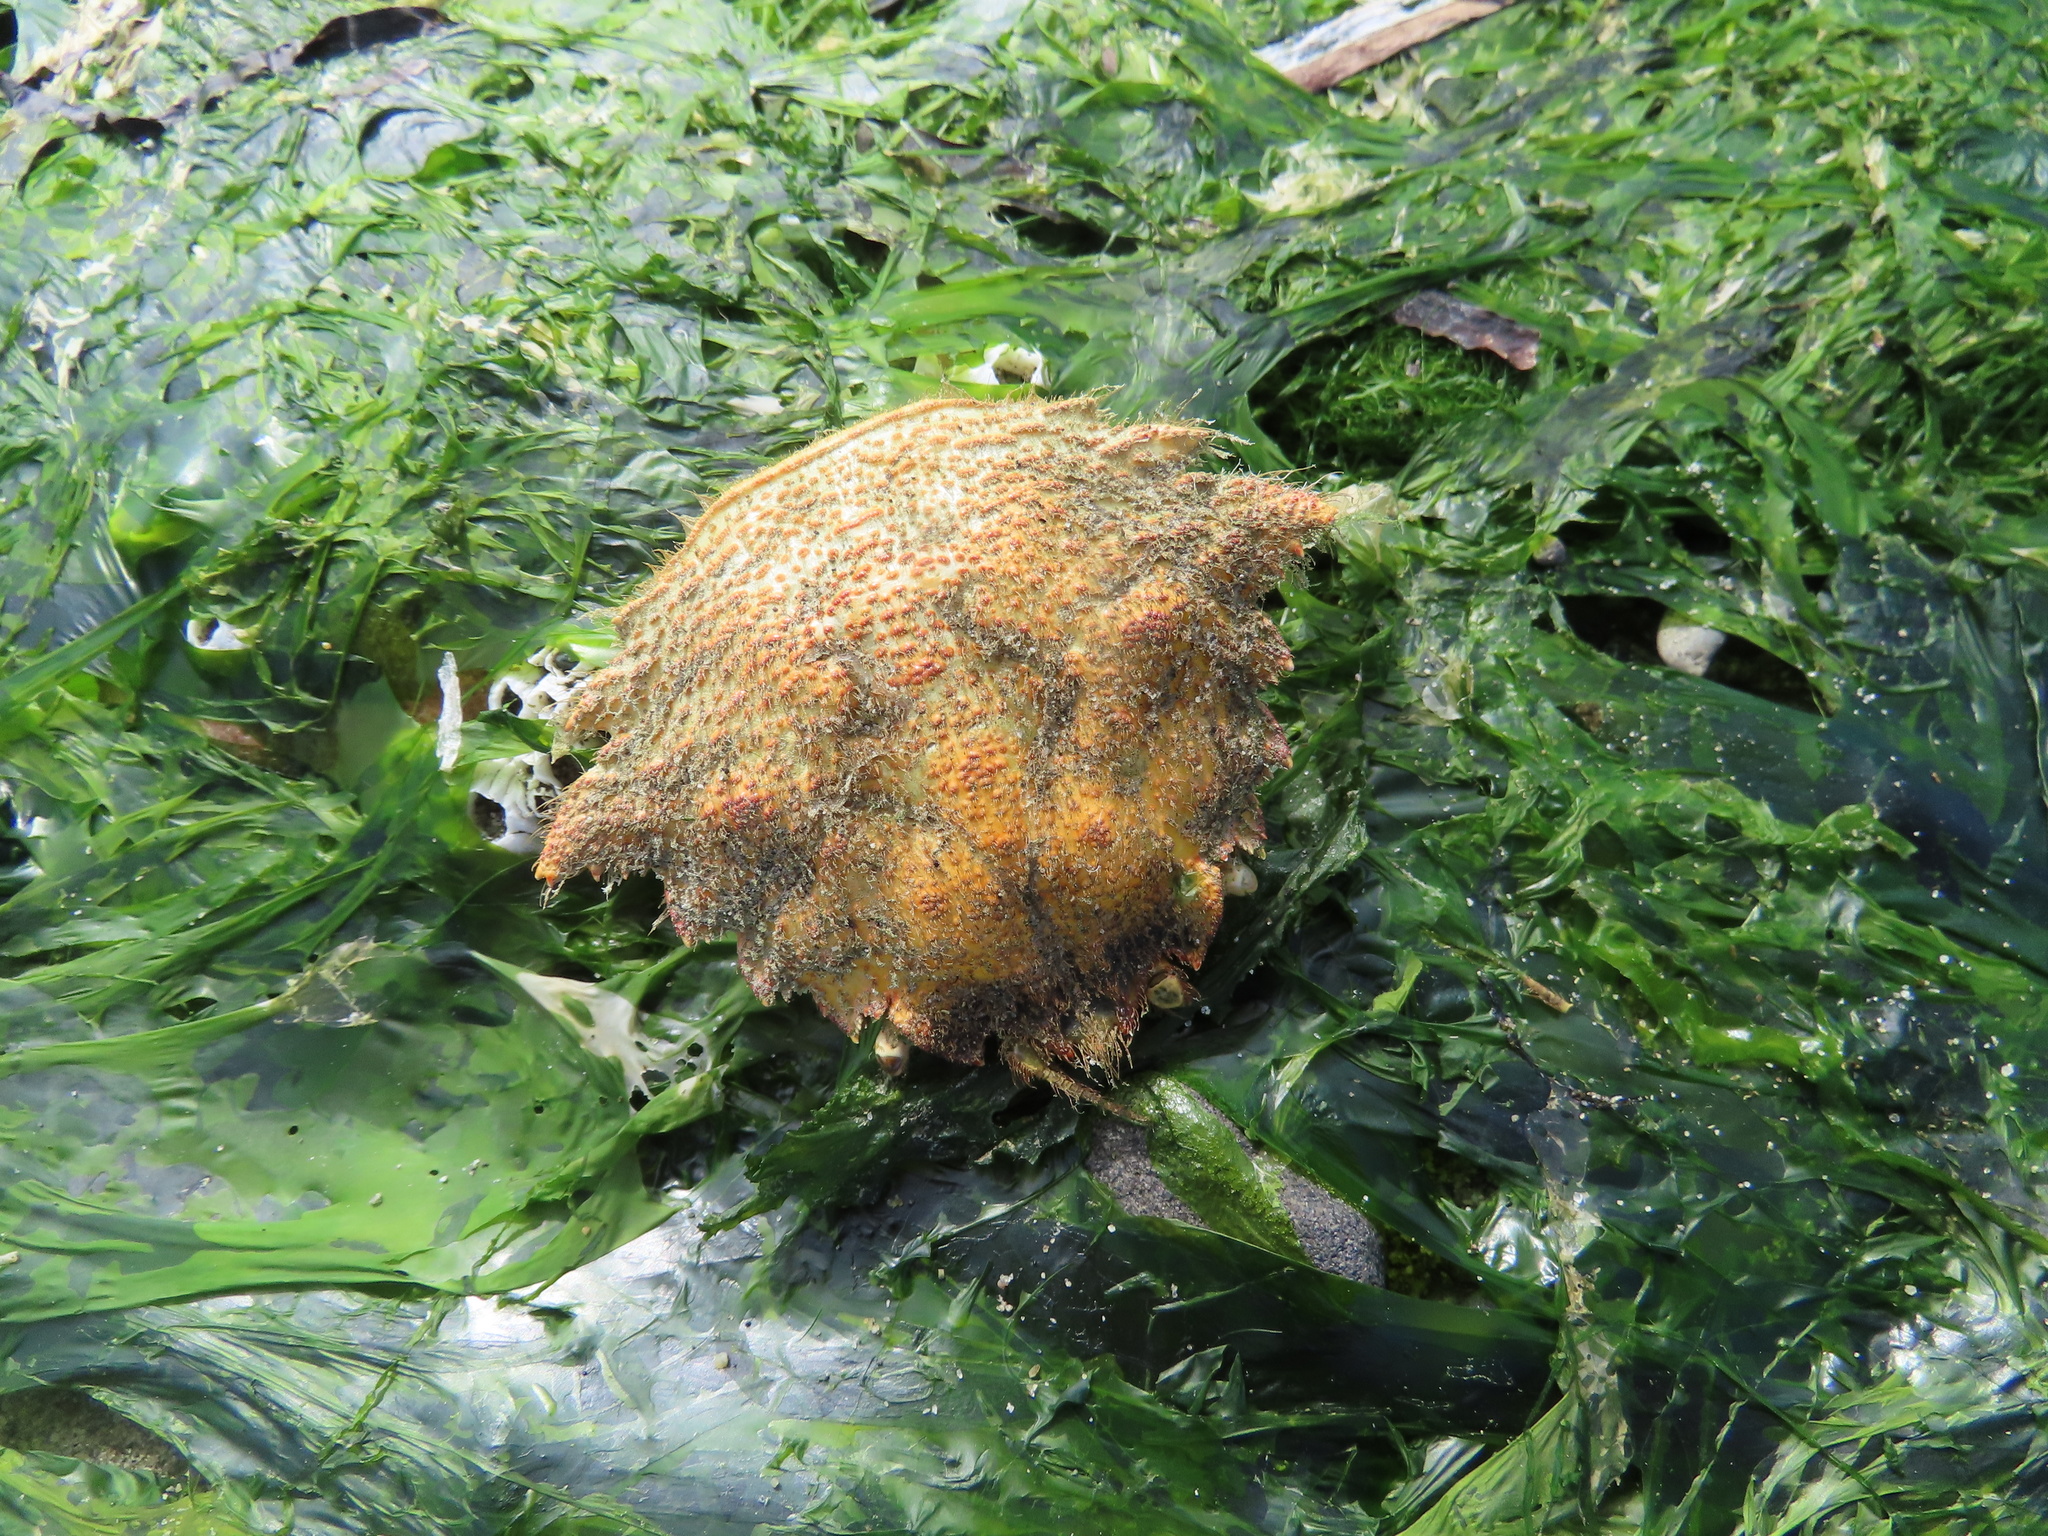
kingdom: Animalia
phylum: Arthropoda
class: Malacostraca
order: Decapoda
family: Cheiragonidae
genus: Telmessus
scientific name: Telmessus cheiragonus
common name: Helmet crab
